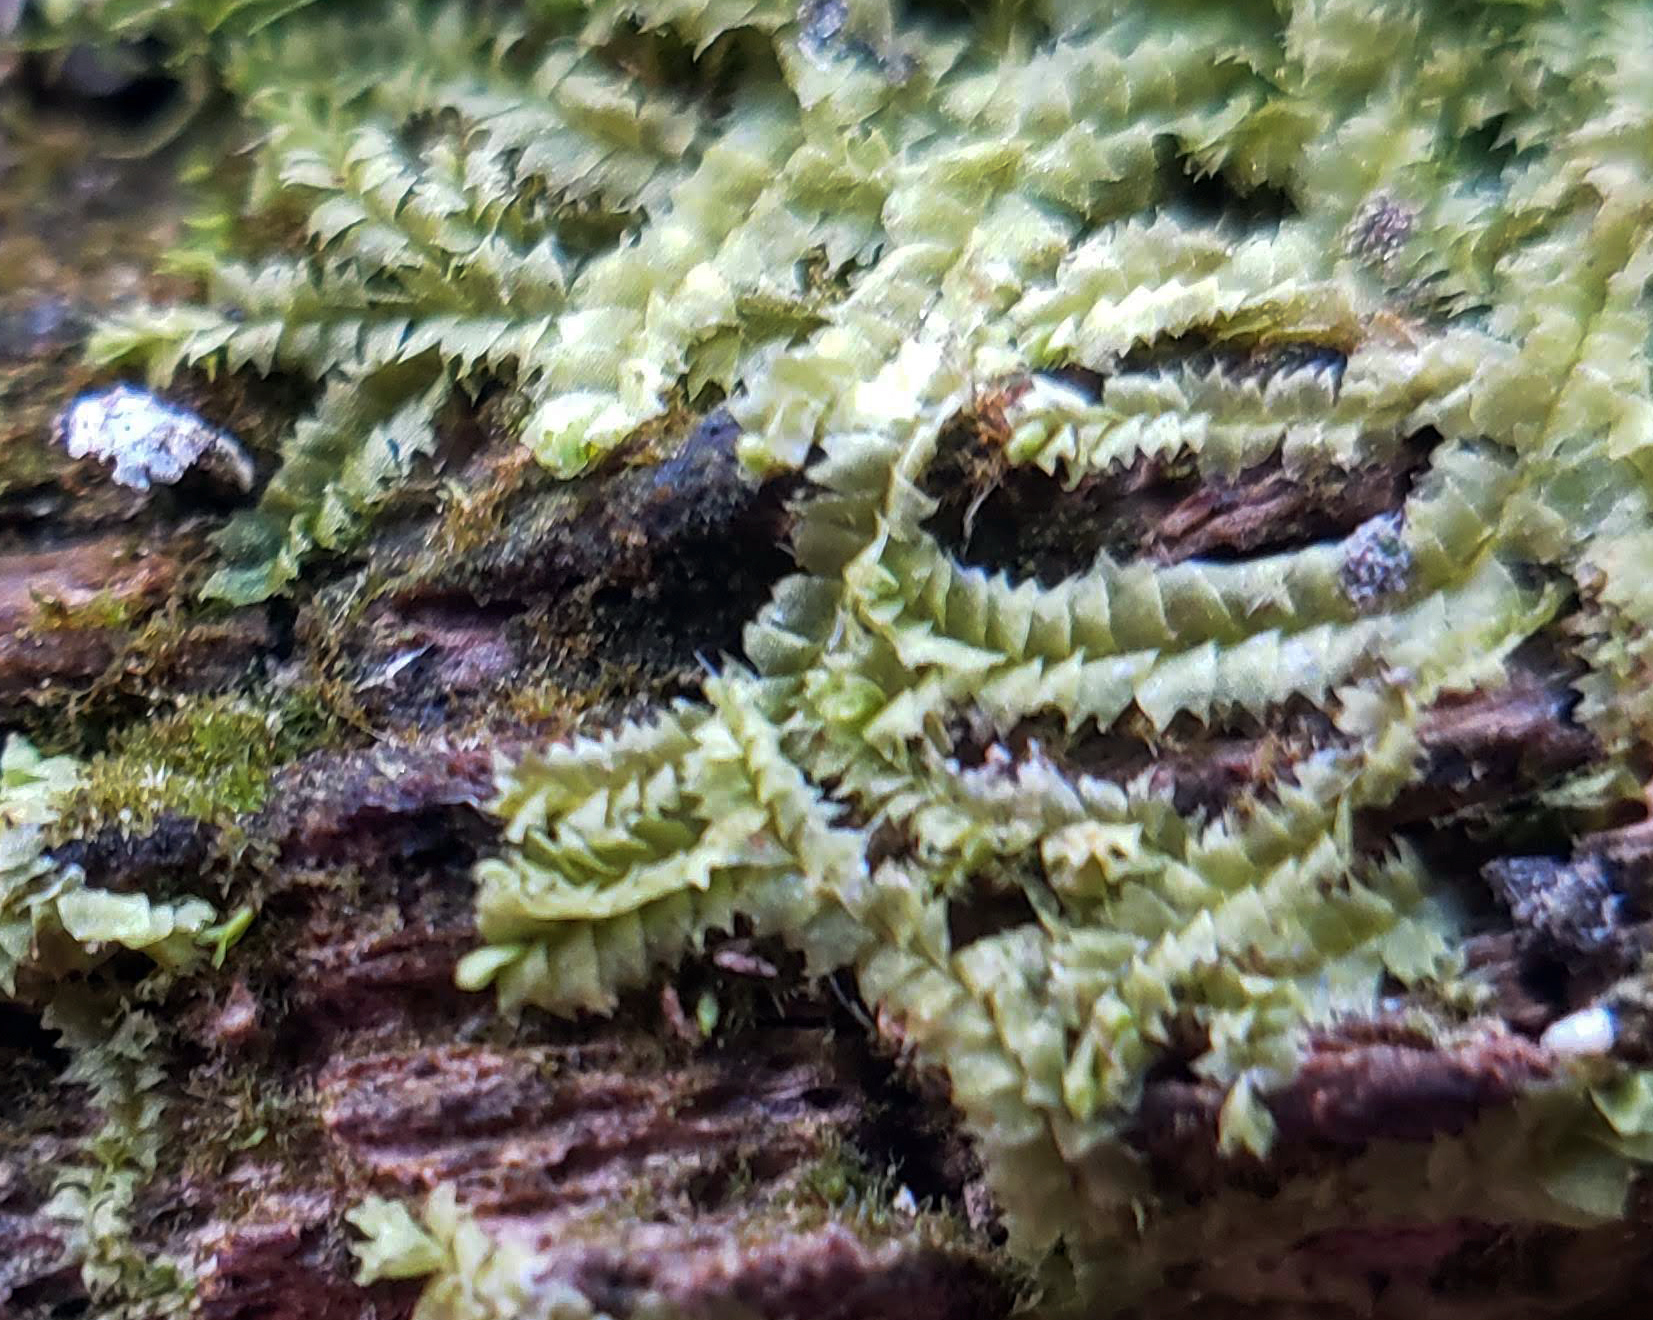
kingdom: Plantae
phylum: Marchantiophyta
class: Jungermanniopsida
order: Jungermanniales
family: Lophocoleaceae
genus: Lophocolea
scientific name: Lophocolea heterophylla
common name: Variable-leaved crestwort
